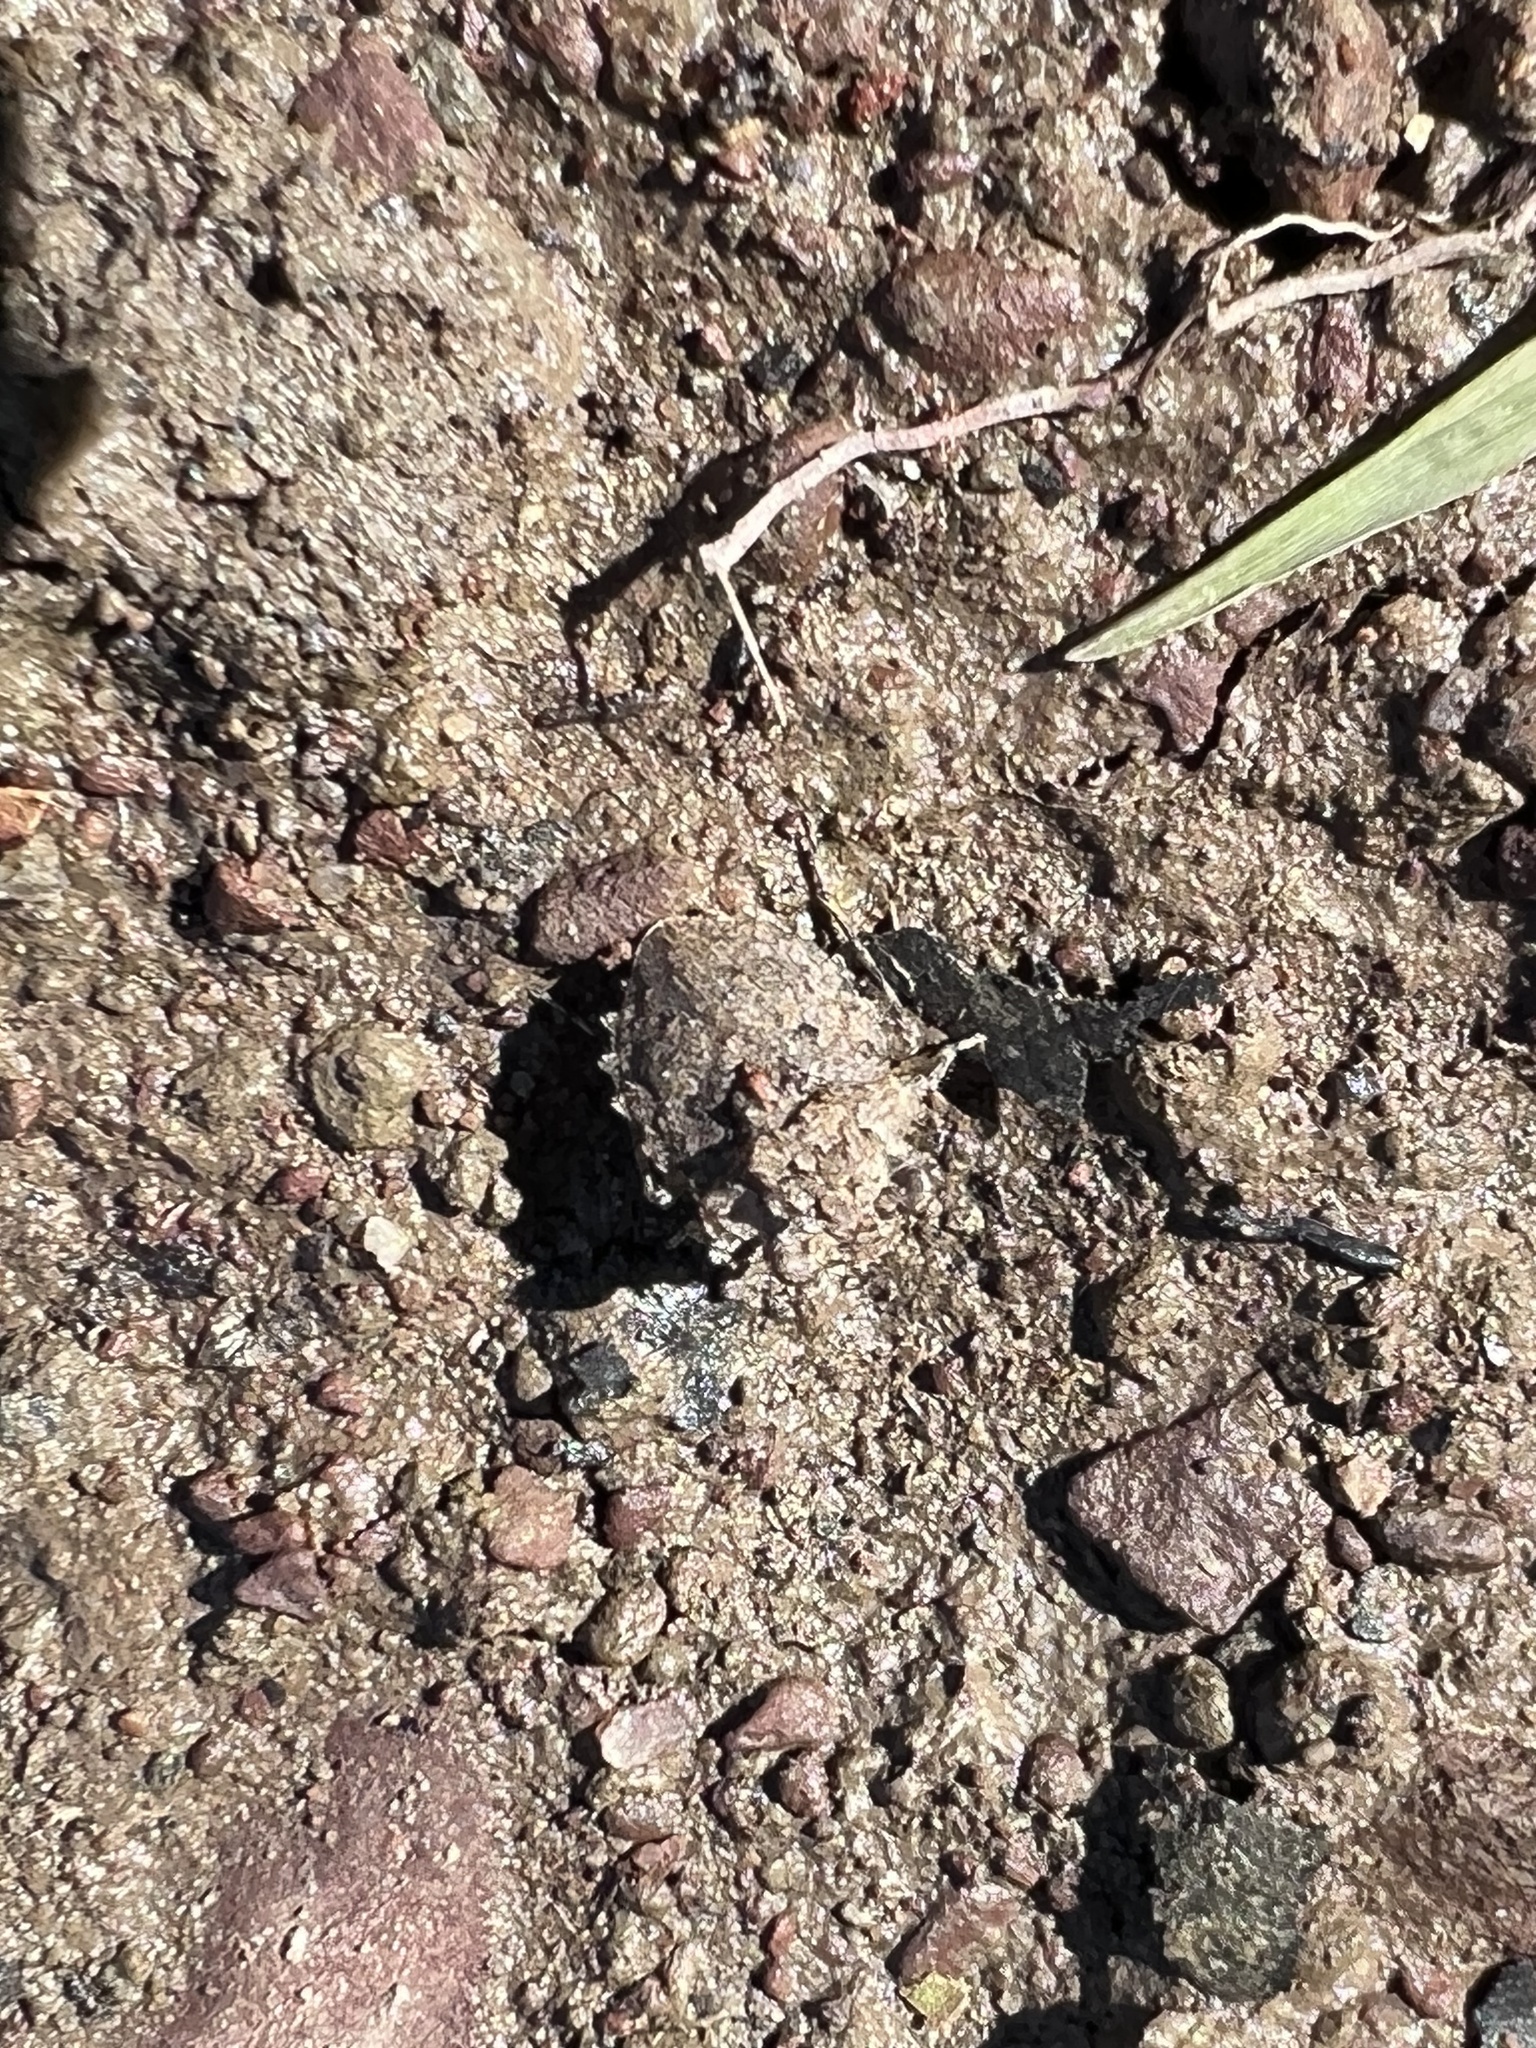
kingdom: Animalia
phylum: Arthropoda
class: Insecta
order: Hemiptera
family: Gelastocoridae
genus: Gelastocoris
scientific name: Gelastocoris oculatus
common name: Toad bug
